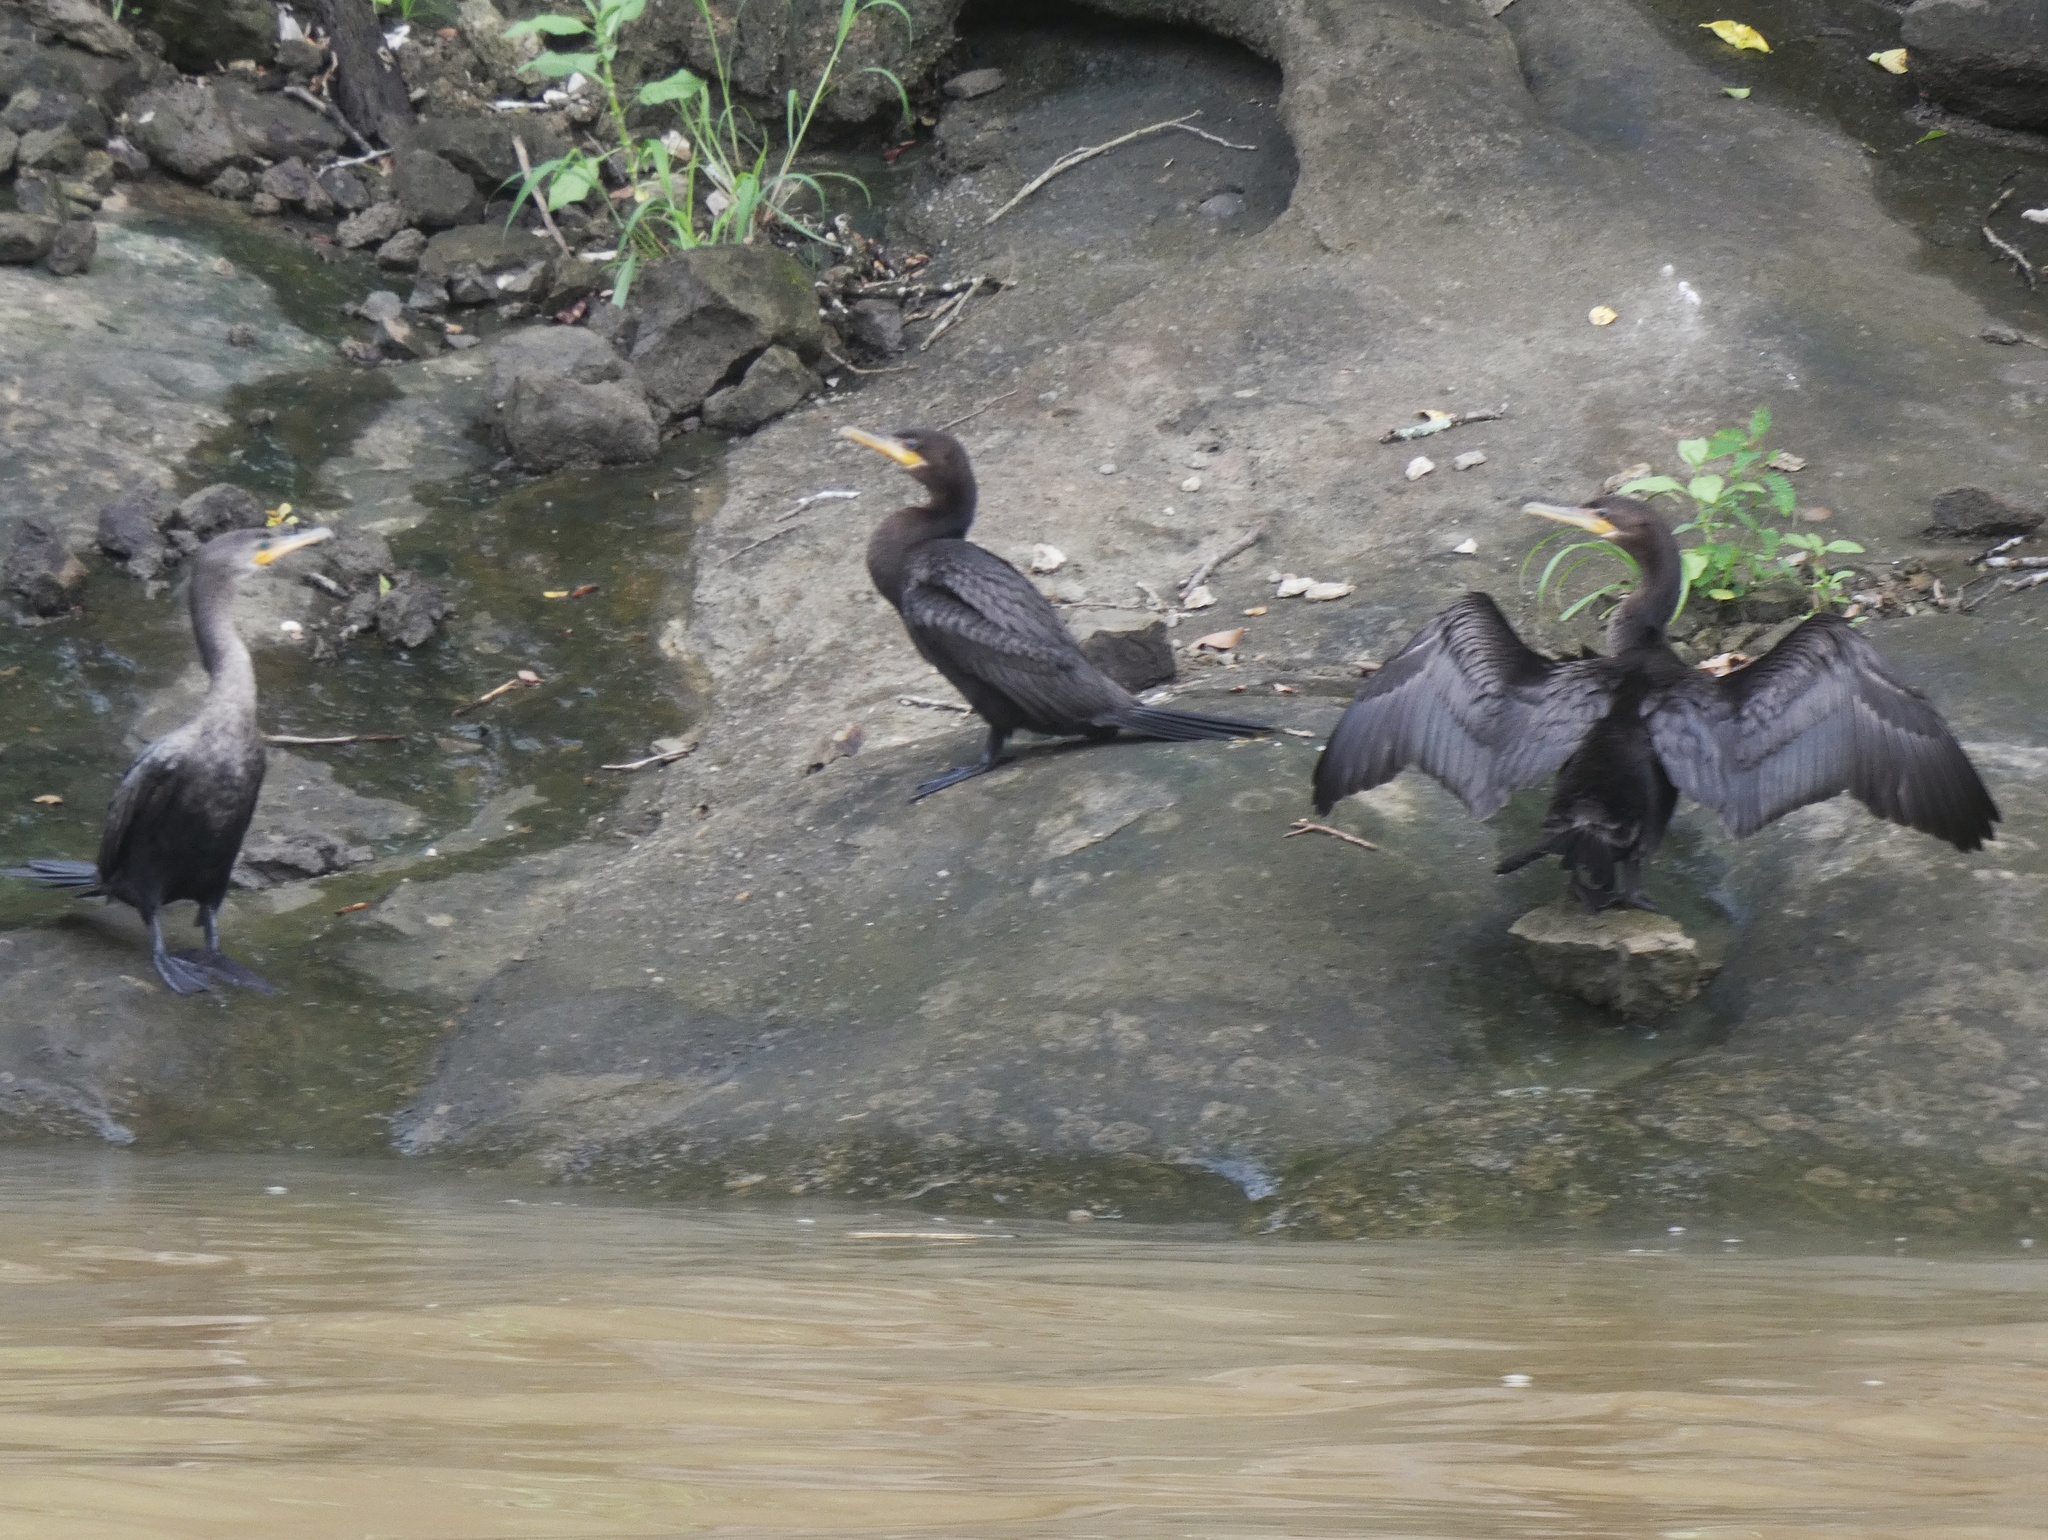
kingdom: Animalia
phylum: Chordata
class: Aves
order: Suliformes
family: Phalacrocoracidae
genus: Phalacrocorax
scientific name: Phalacrocorax brasilianus
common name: Neotropic cormorant
